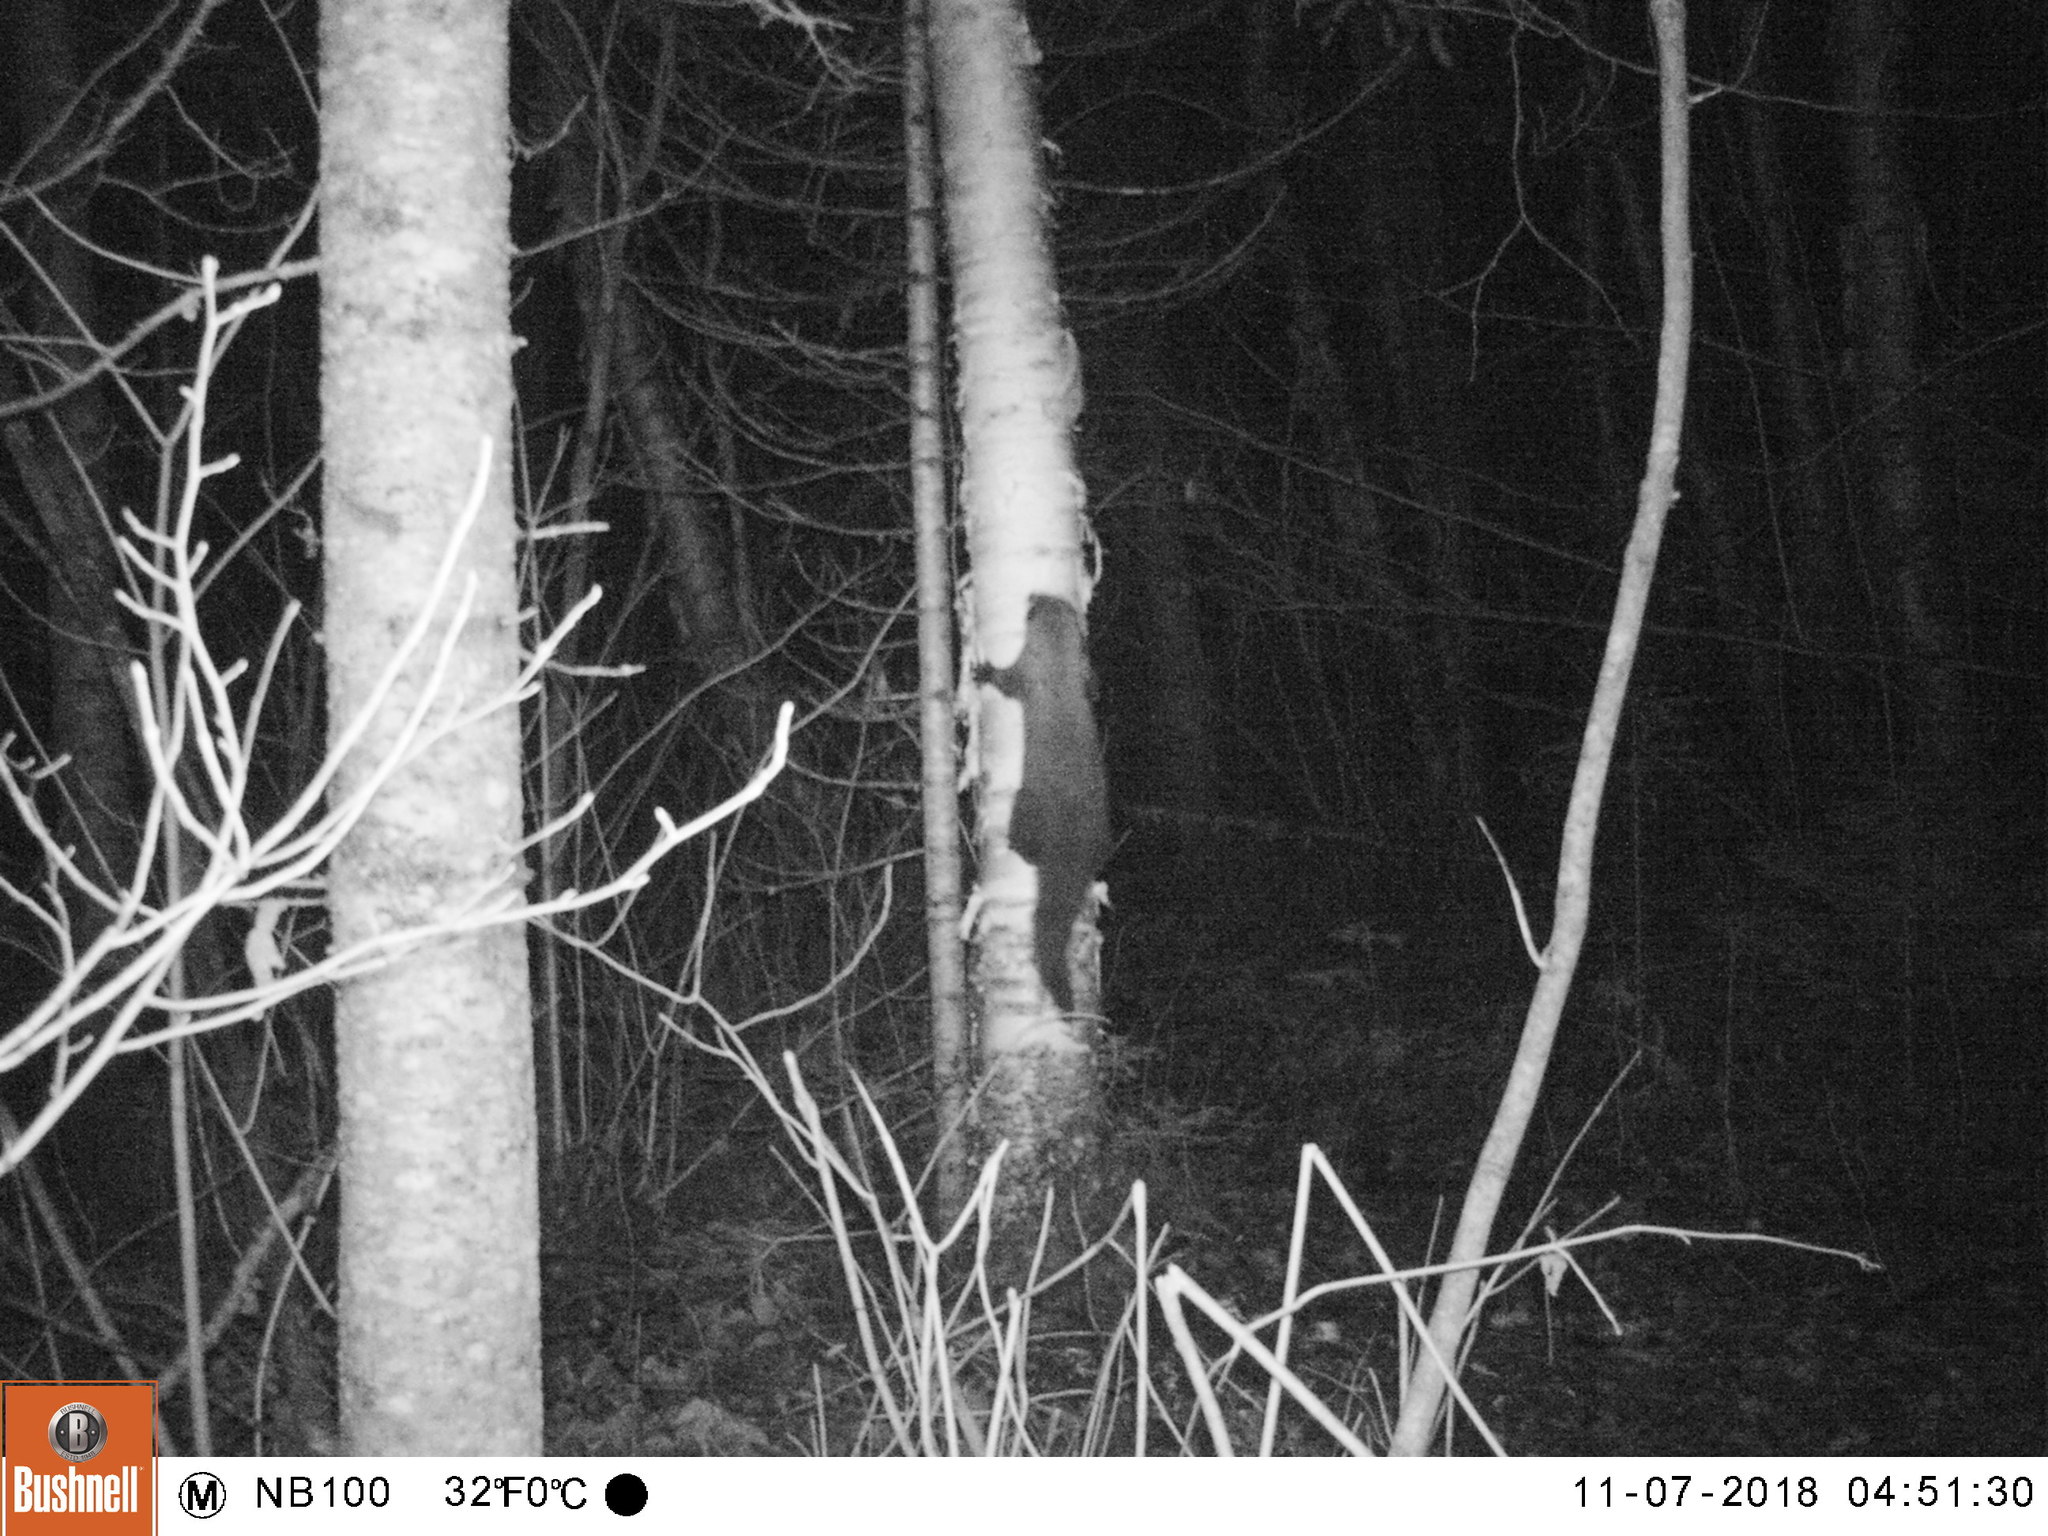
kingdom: Animalia
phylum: Chordata
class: Mammalia
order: Carnivora
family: Mustelidae
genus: Pekania
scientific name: Pekania pennanti
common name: Fisher
